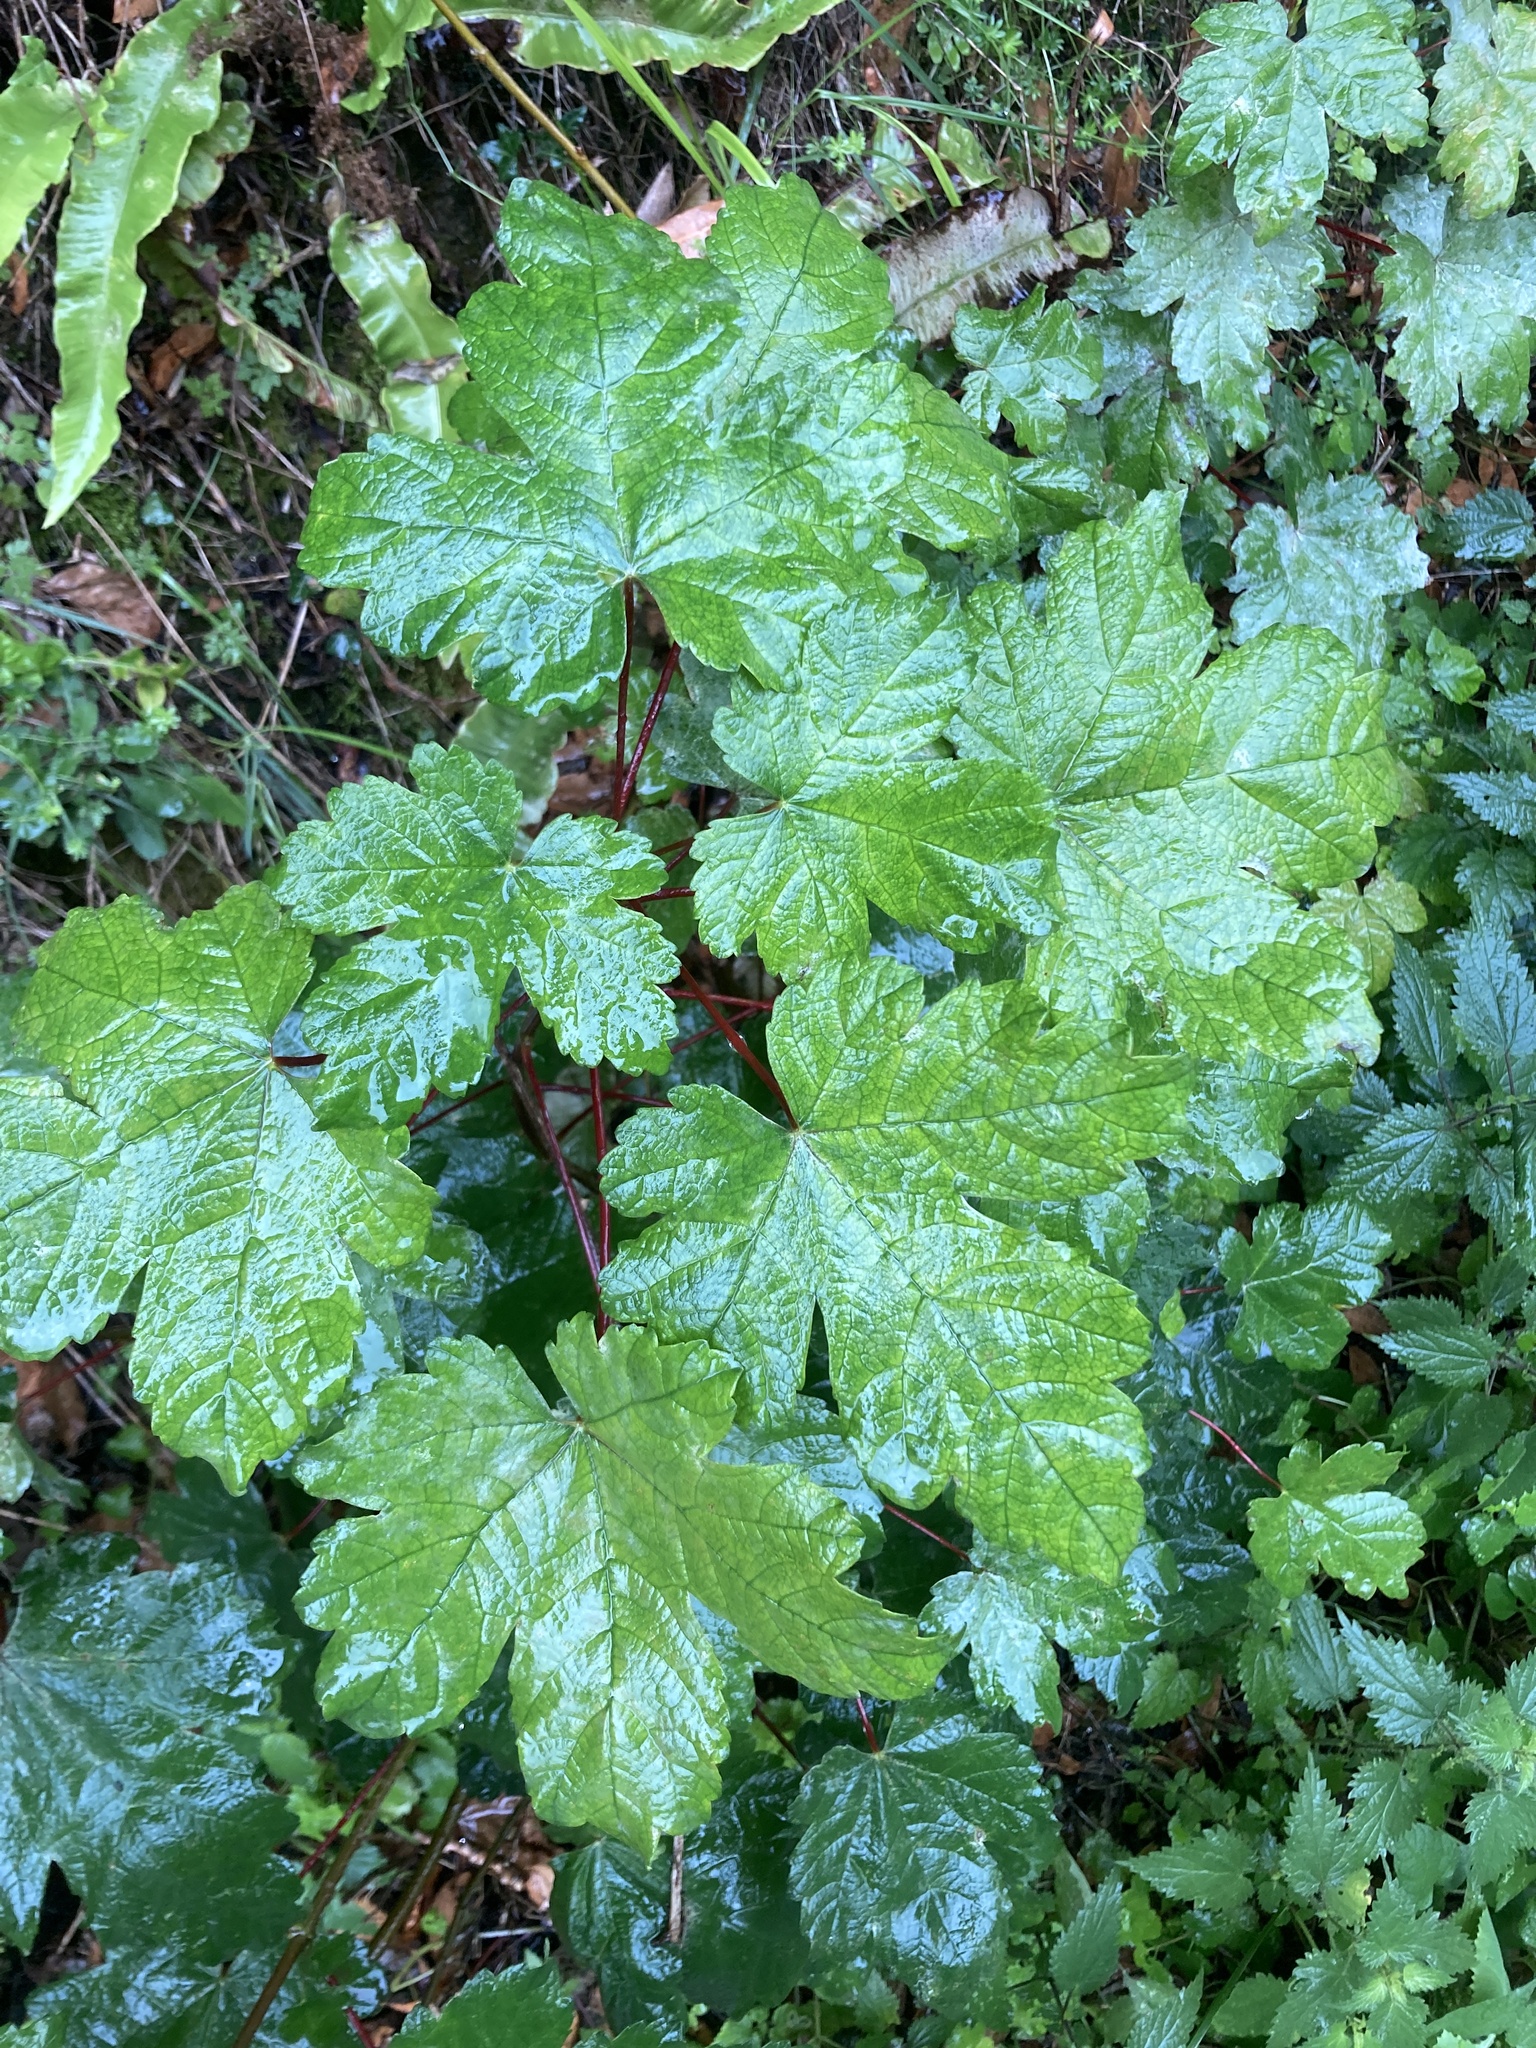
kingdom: Plantae
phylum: Tracheophyta
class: Magnoliopsida
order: Sapindales
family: Sapindaceae
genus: Acer
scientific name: Acer pseudoplatanus
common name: Sycamore
